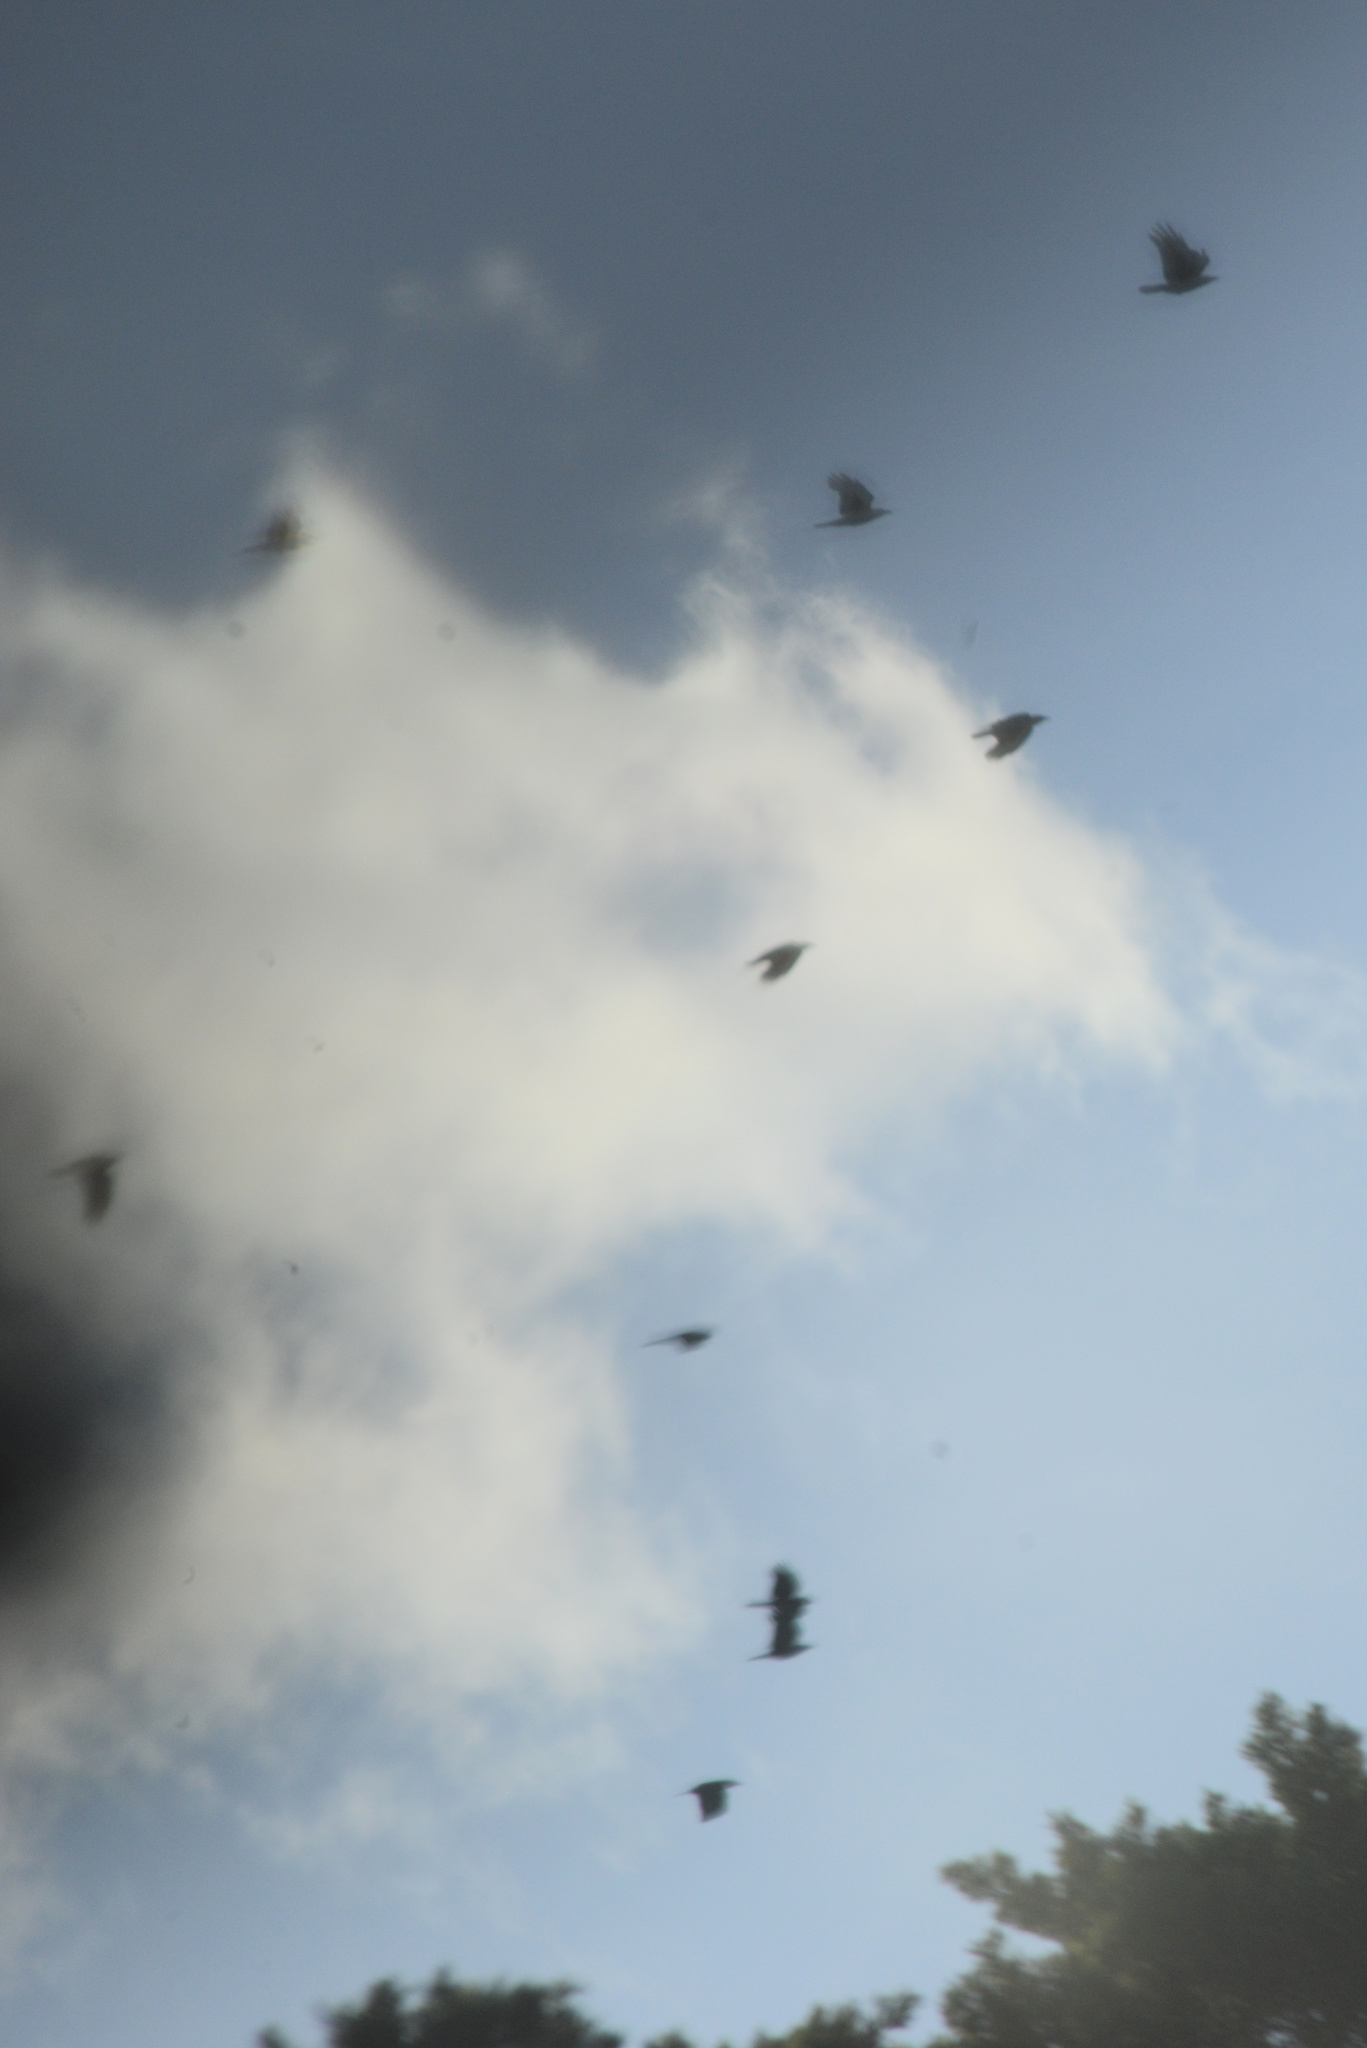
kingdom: Animalia
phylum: Chordata
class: Aves
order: Passeriformes
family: Corvidae
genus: Corvus
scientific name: Corvus brachyrhynchos
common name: American crow
